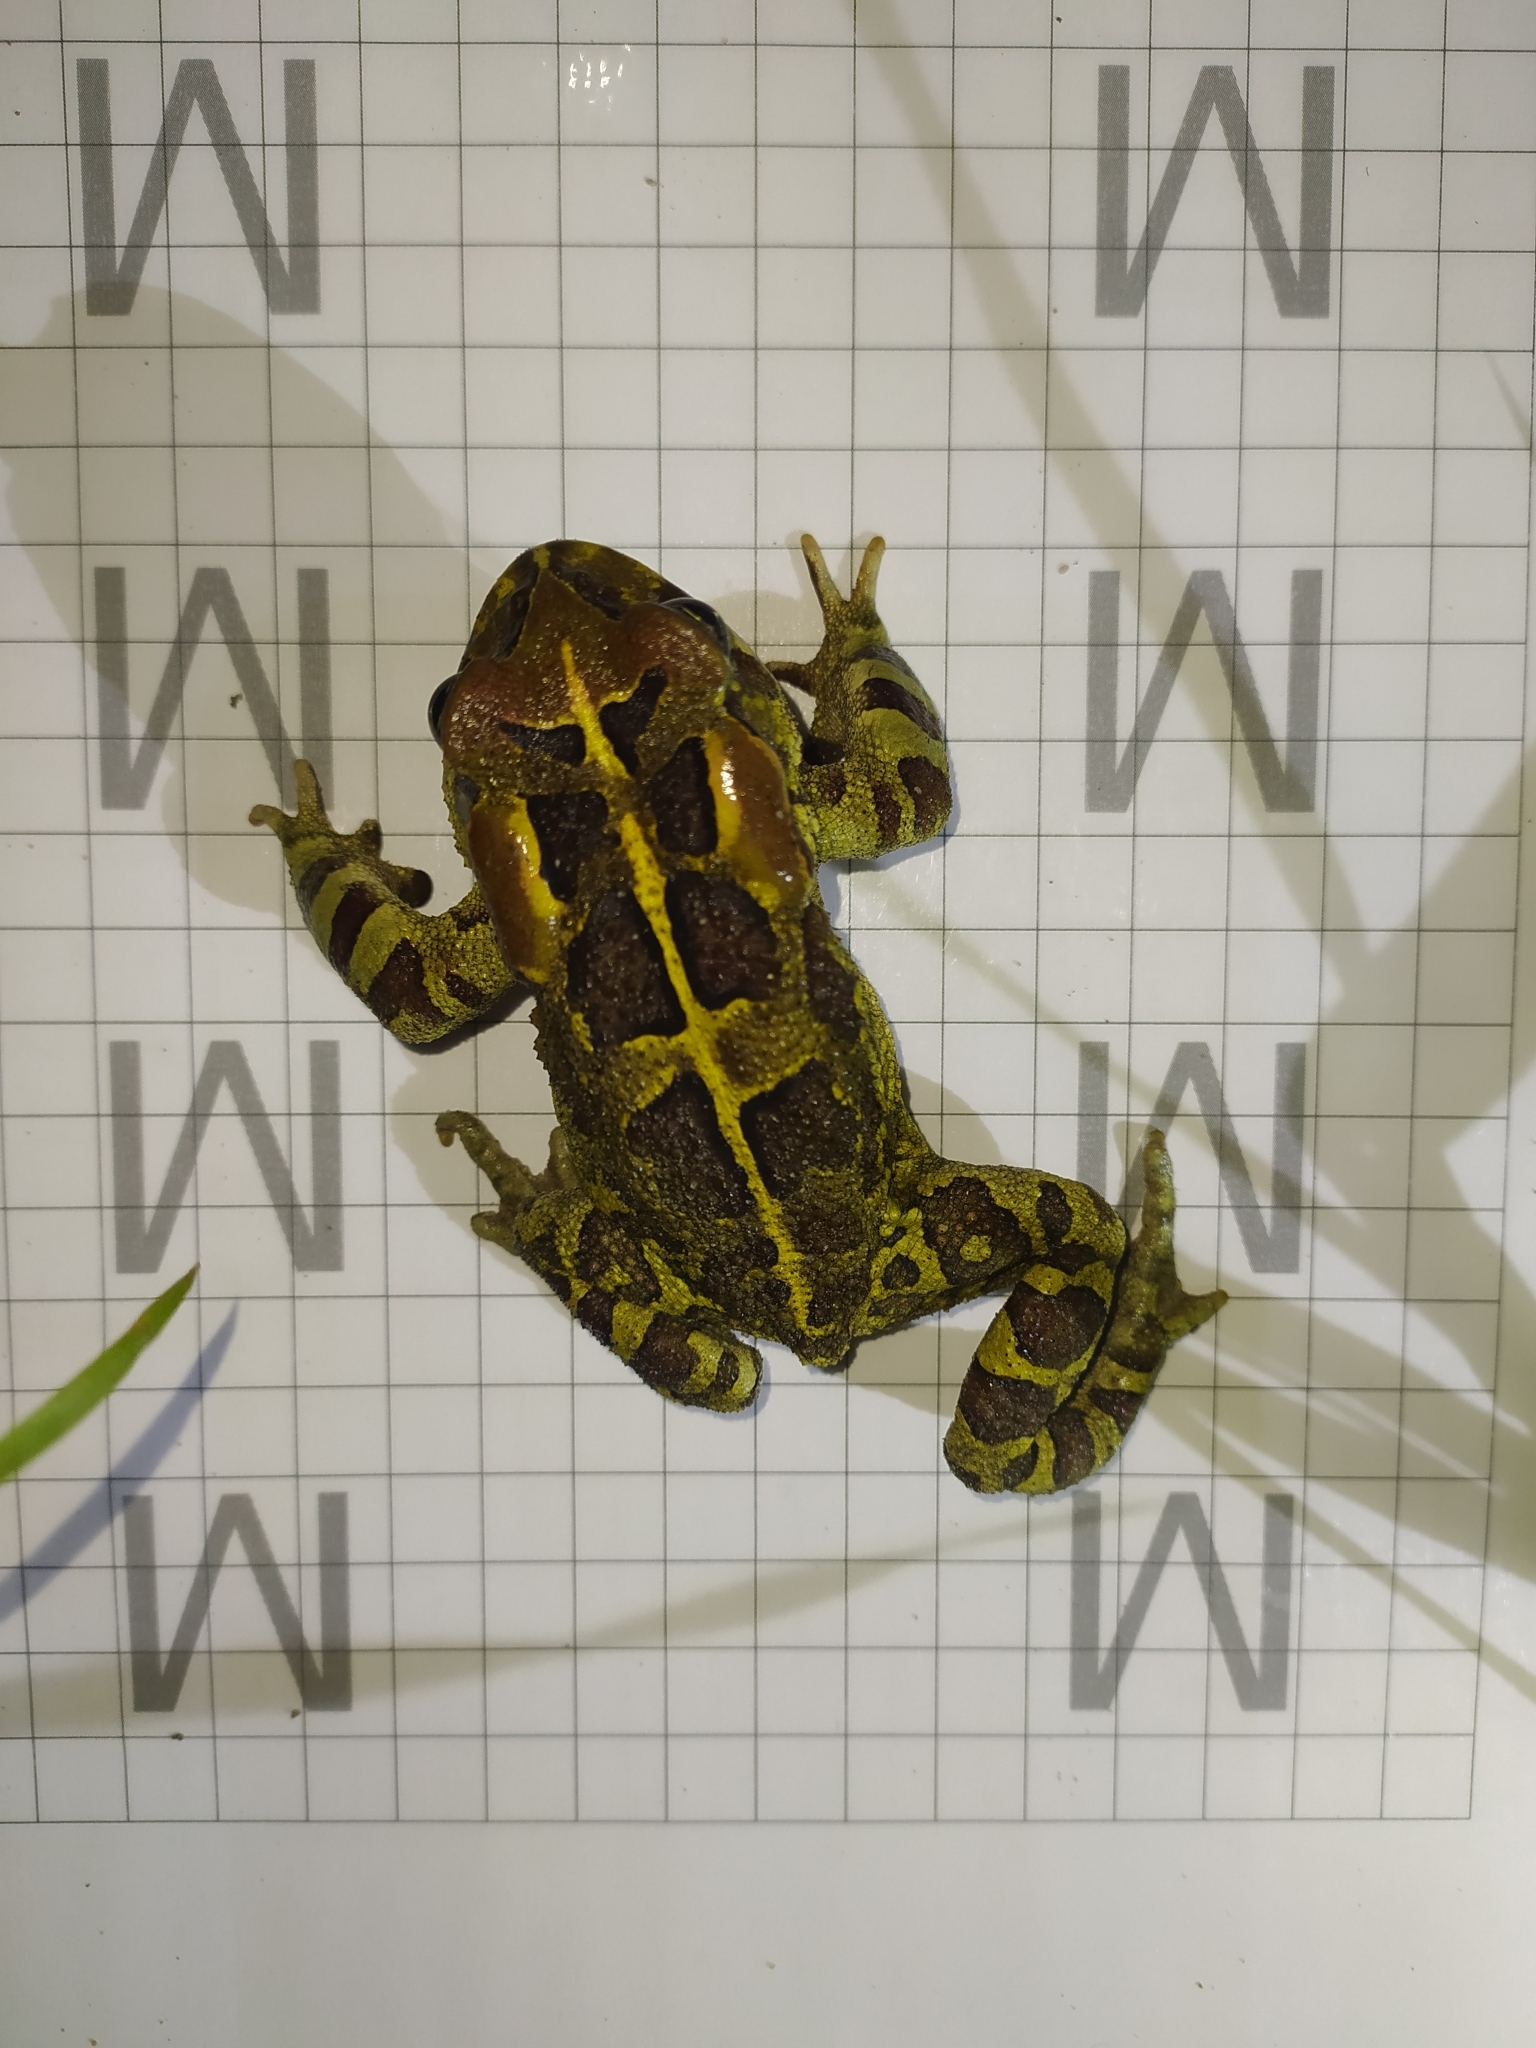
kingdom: Animalia
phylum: Chordata
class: Amphibia
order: Anura
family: Bufonidae
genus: Sclerophrys
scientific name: Sclerophrys pantherina
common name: Panther toad
